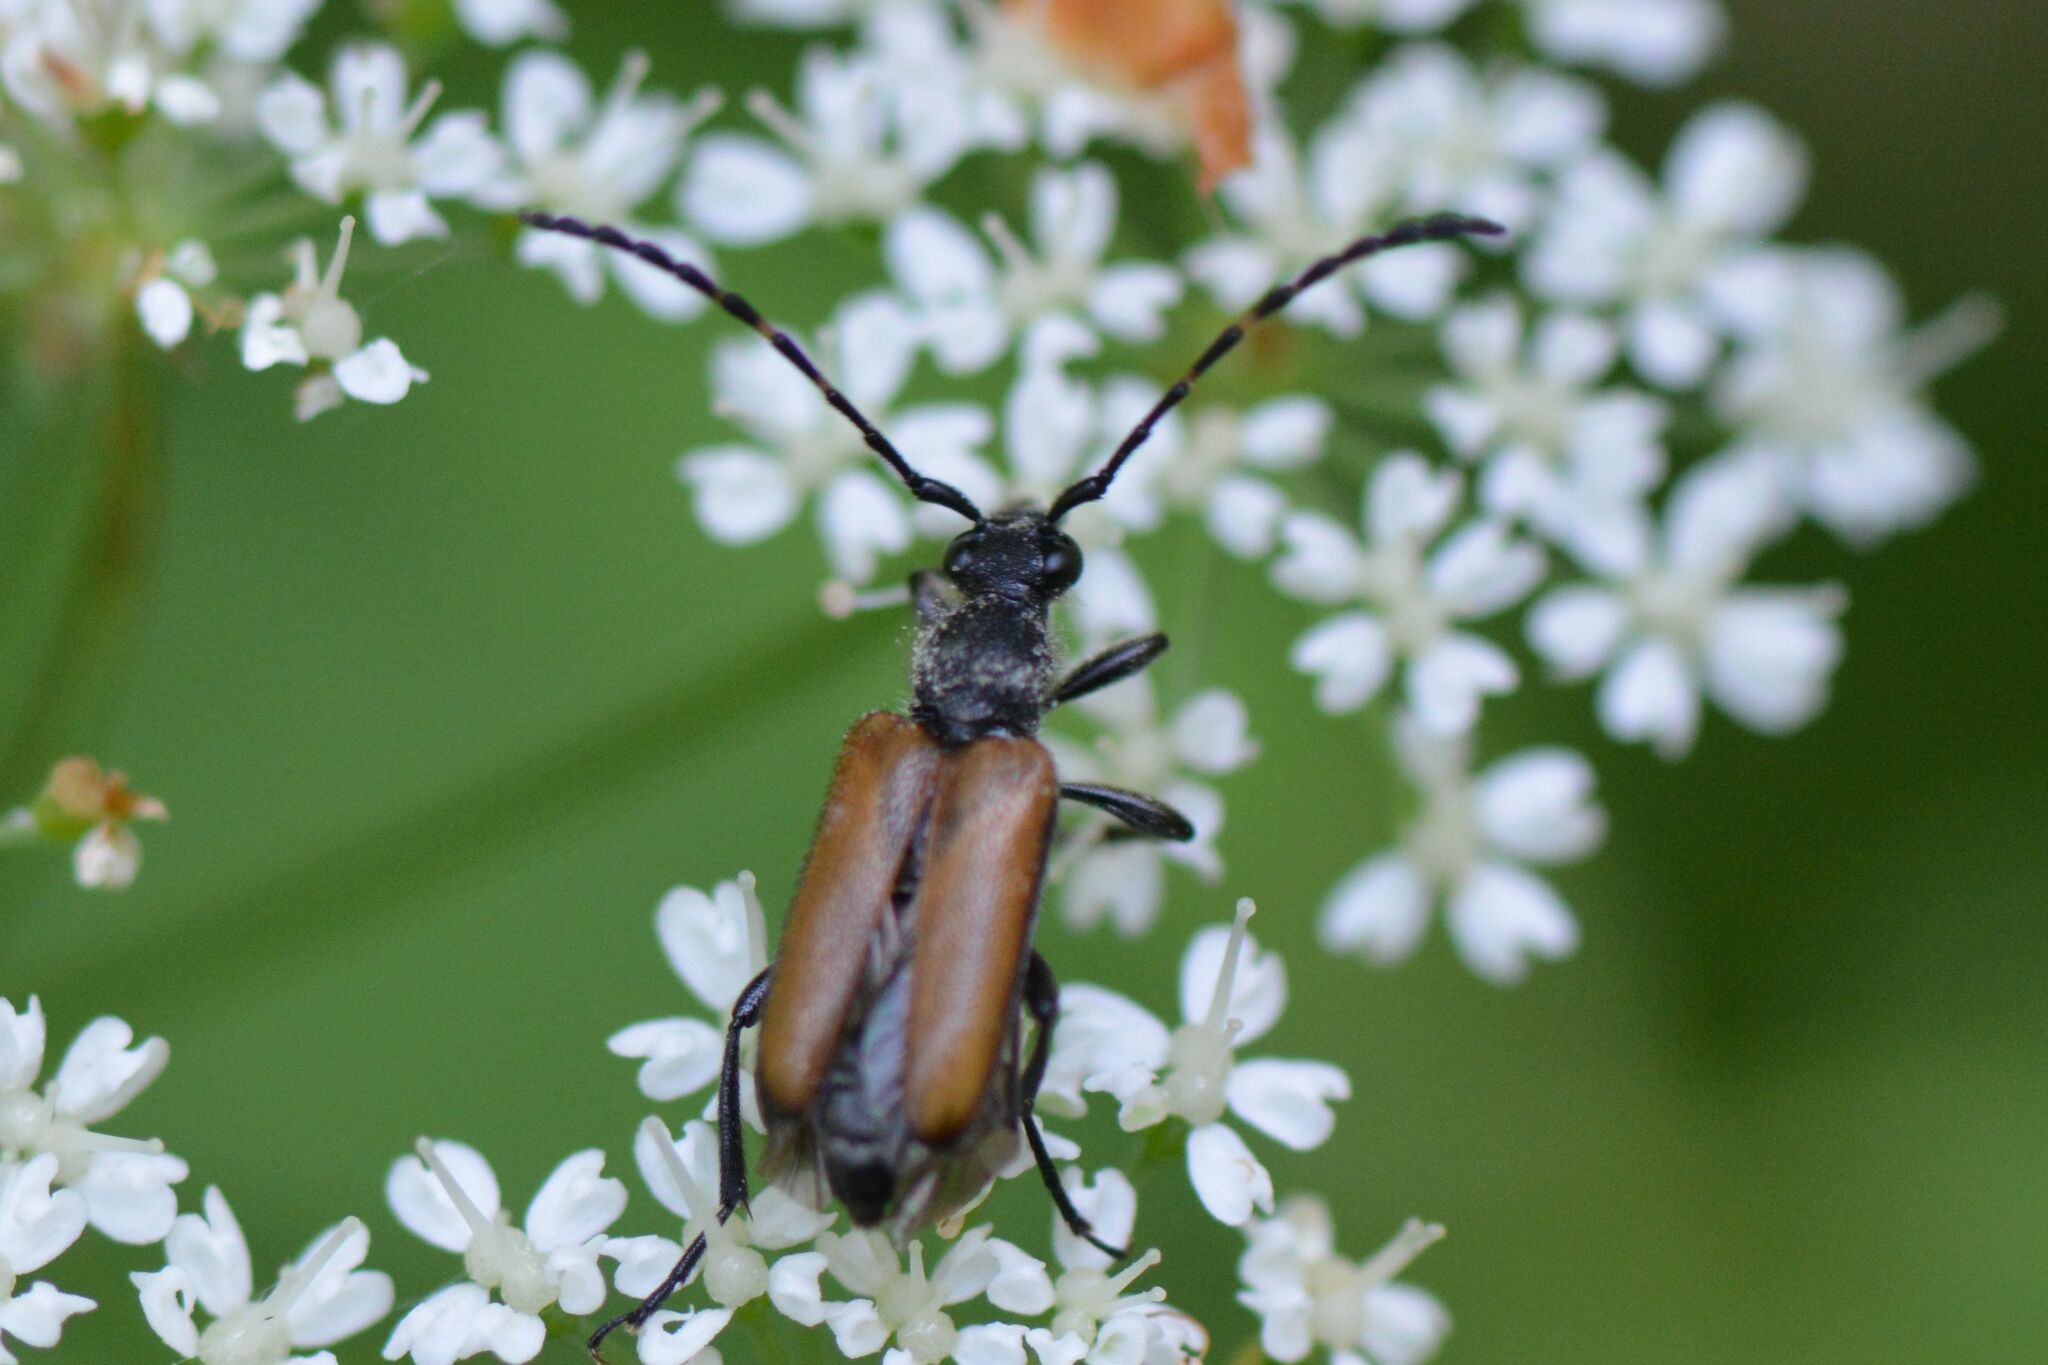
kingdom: Animalia
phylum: Arthropoda
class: Insecta
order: Coleoptera
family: Cerambycidae
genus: Paracorymbia
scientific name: Paracorymbia maculicornis
